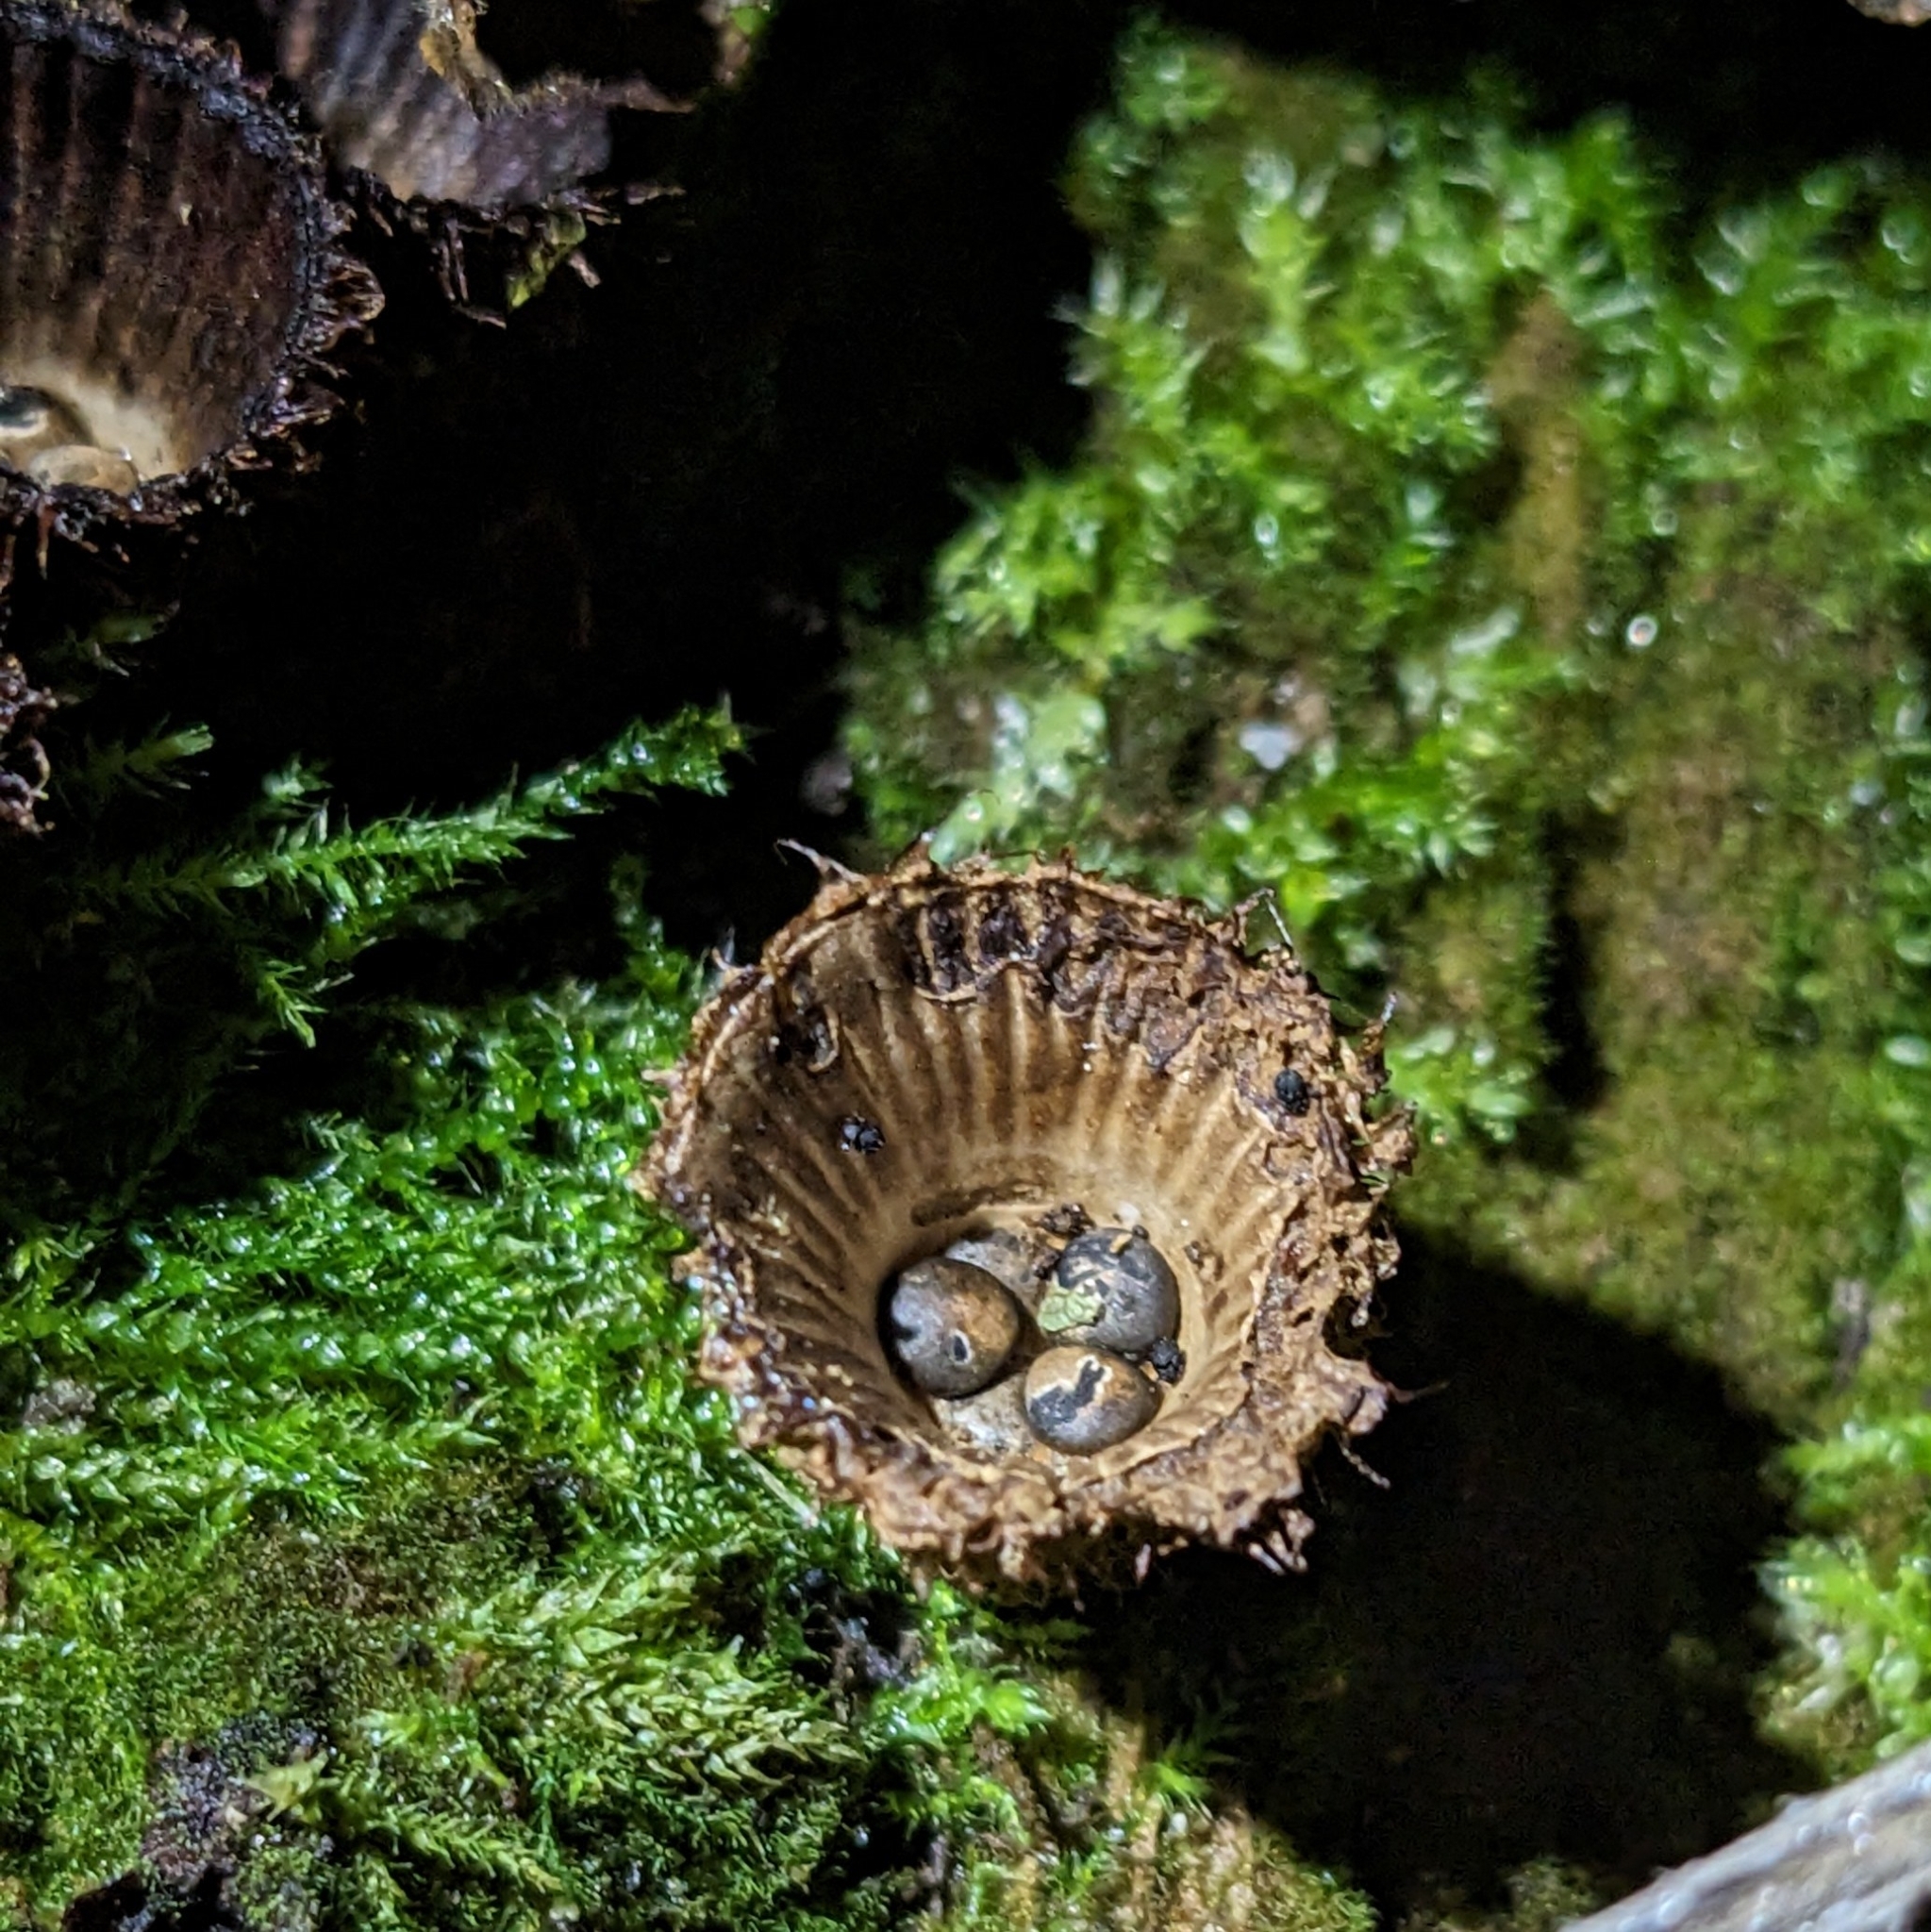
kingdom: Fungi
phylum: Basidiomycota
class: Agaricomycetes
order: Agaricales
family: Agaricaceae
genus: Cyathus
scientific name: Cyathus striatus
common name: Fluted bird's nest
